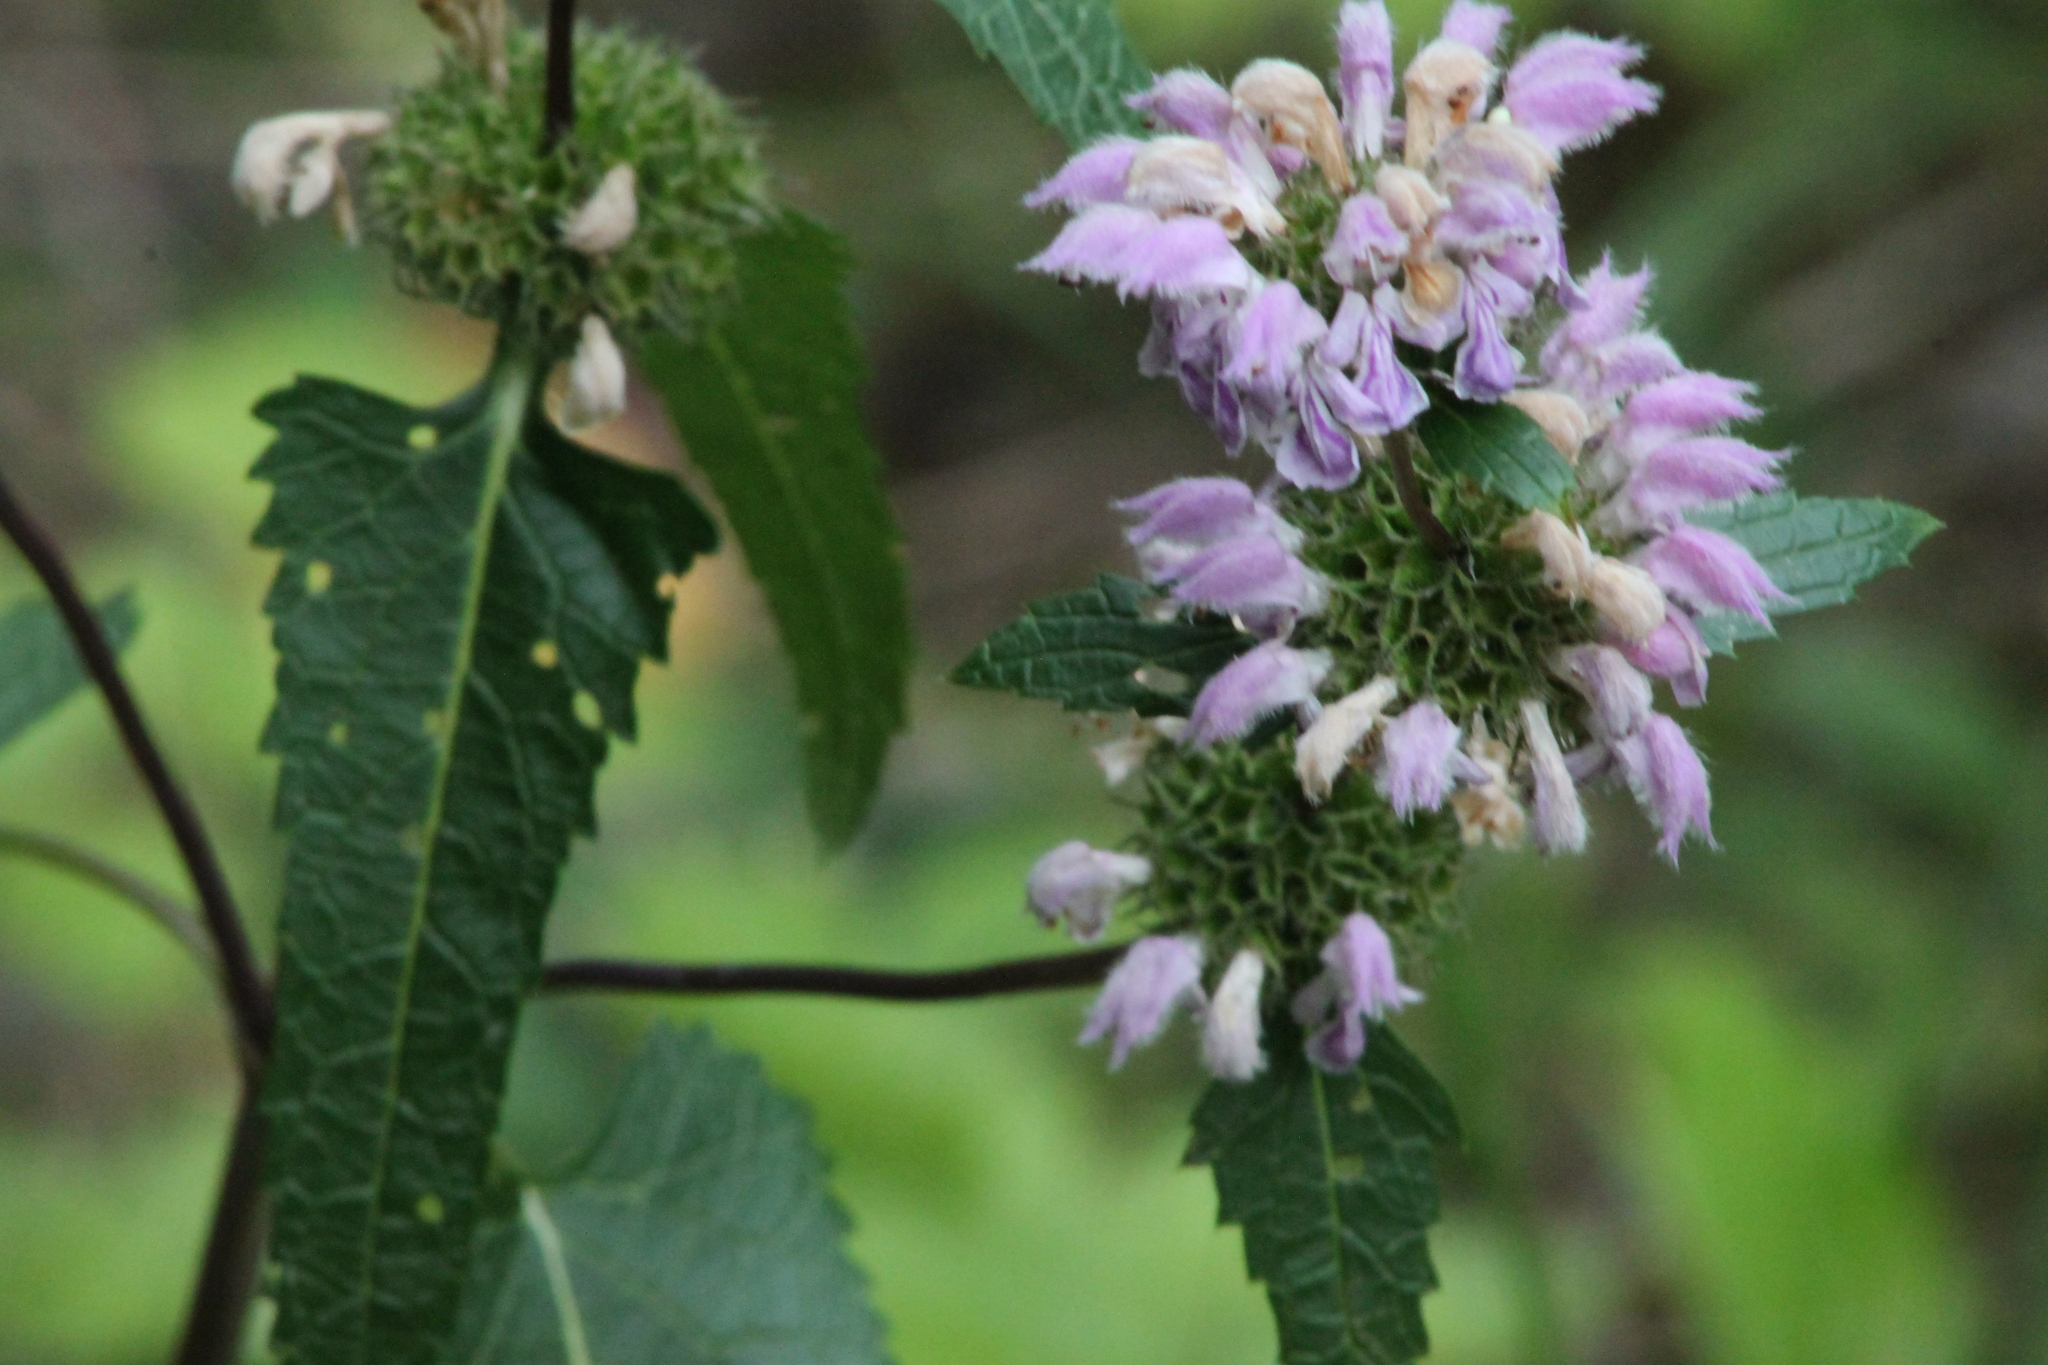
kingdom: Plantae
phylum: Tracheophyta
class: Magnoliopsida
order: Lamiales
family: Lamiaceae
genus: Phlomoides
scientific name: Phlomoides tuberosa
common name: Tuberous jerusalem sage
